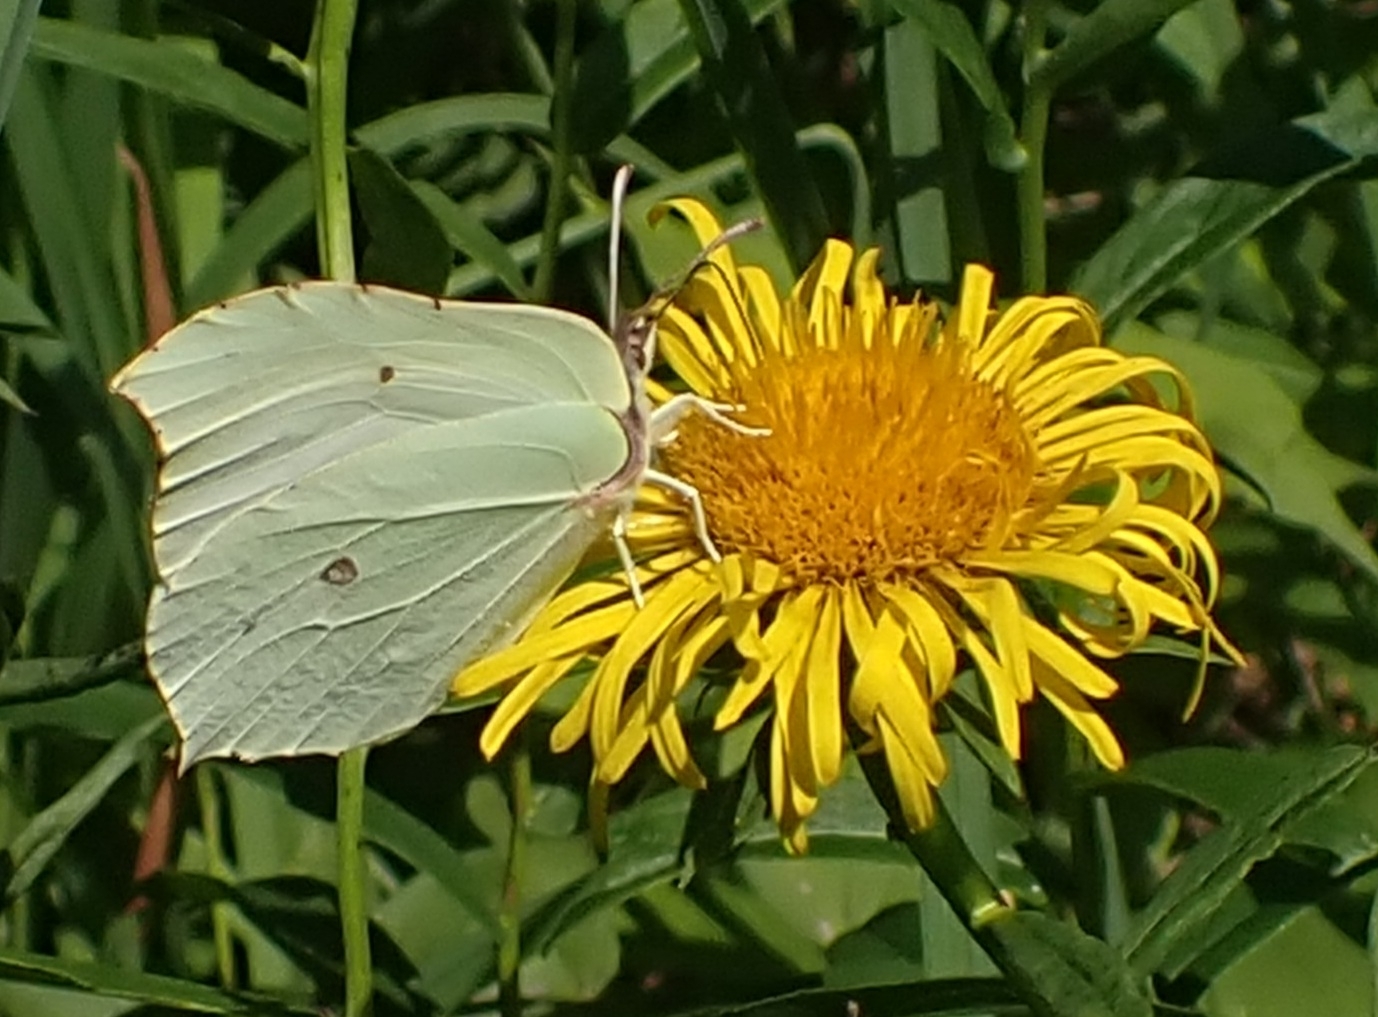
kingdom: Animalia
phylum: Arthropoda
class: Insecta
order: Lepidoptera
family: Pieridae
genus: Gonepteryx
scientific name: Gonepteryx rhamni
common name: Brimstone
